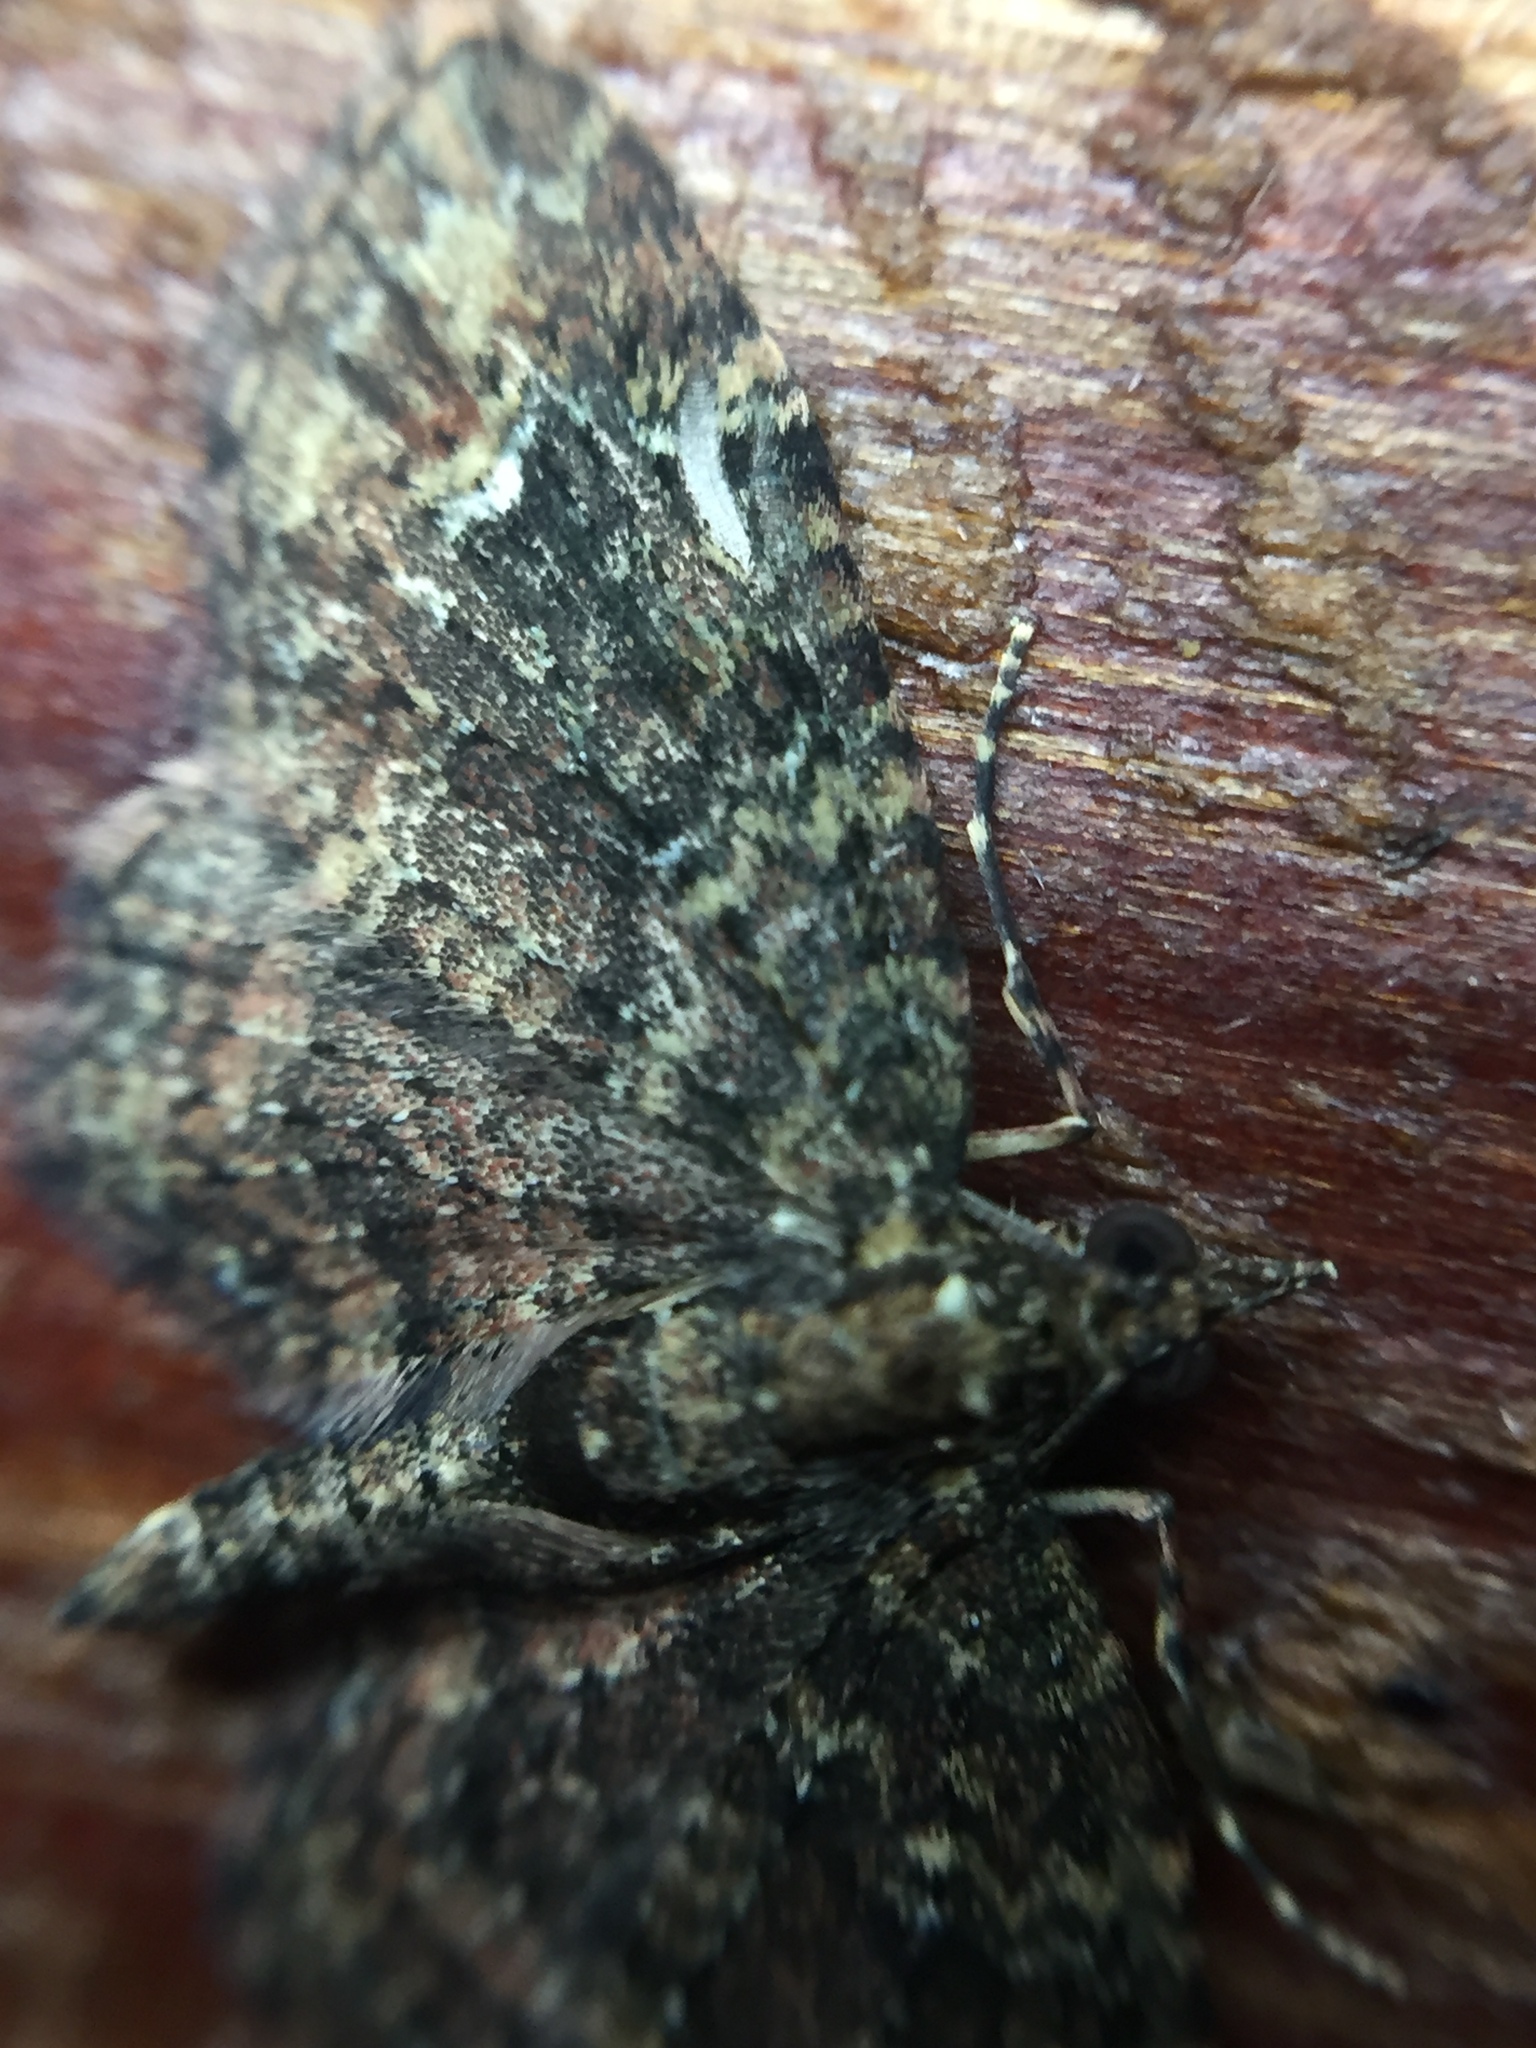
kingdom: Animalia
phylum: Arthropoda
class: Insecta
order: Lepidoptera
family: Geometridae
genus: Pasiphilodes
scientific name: Pasiphilodes testulata
